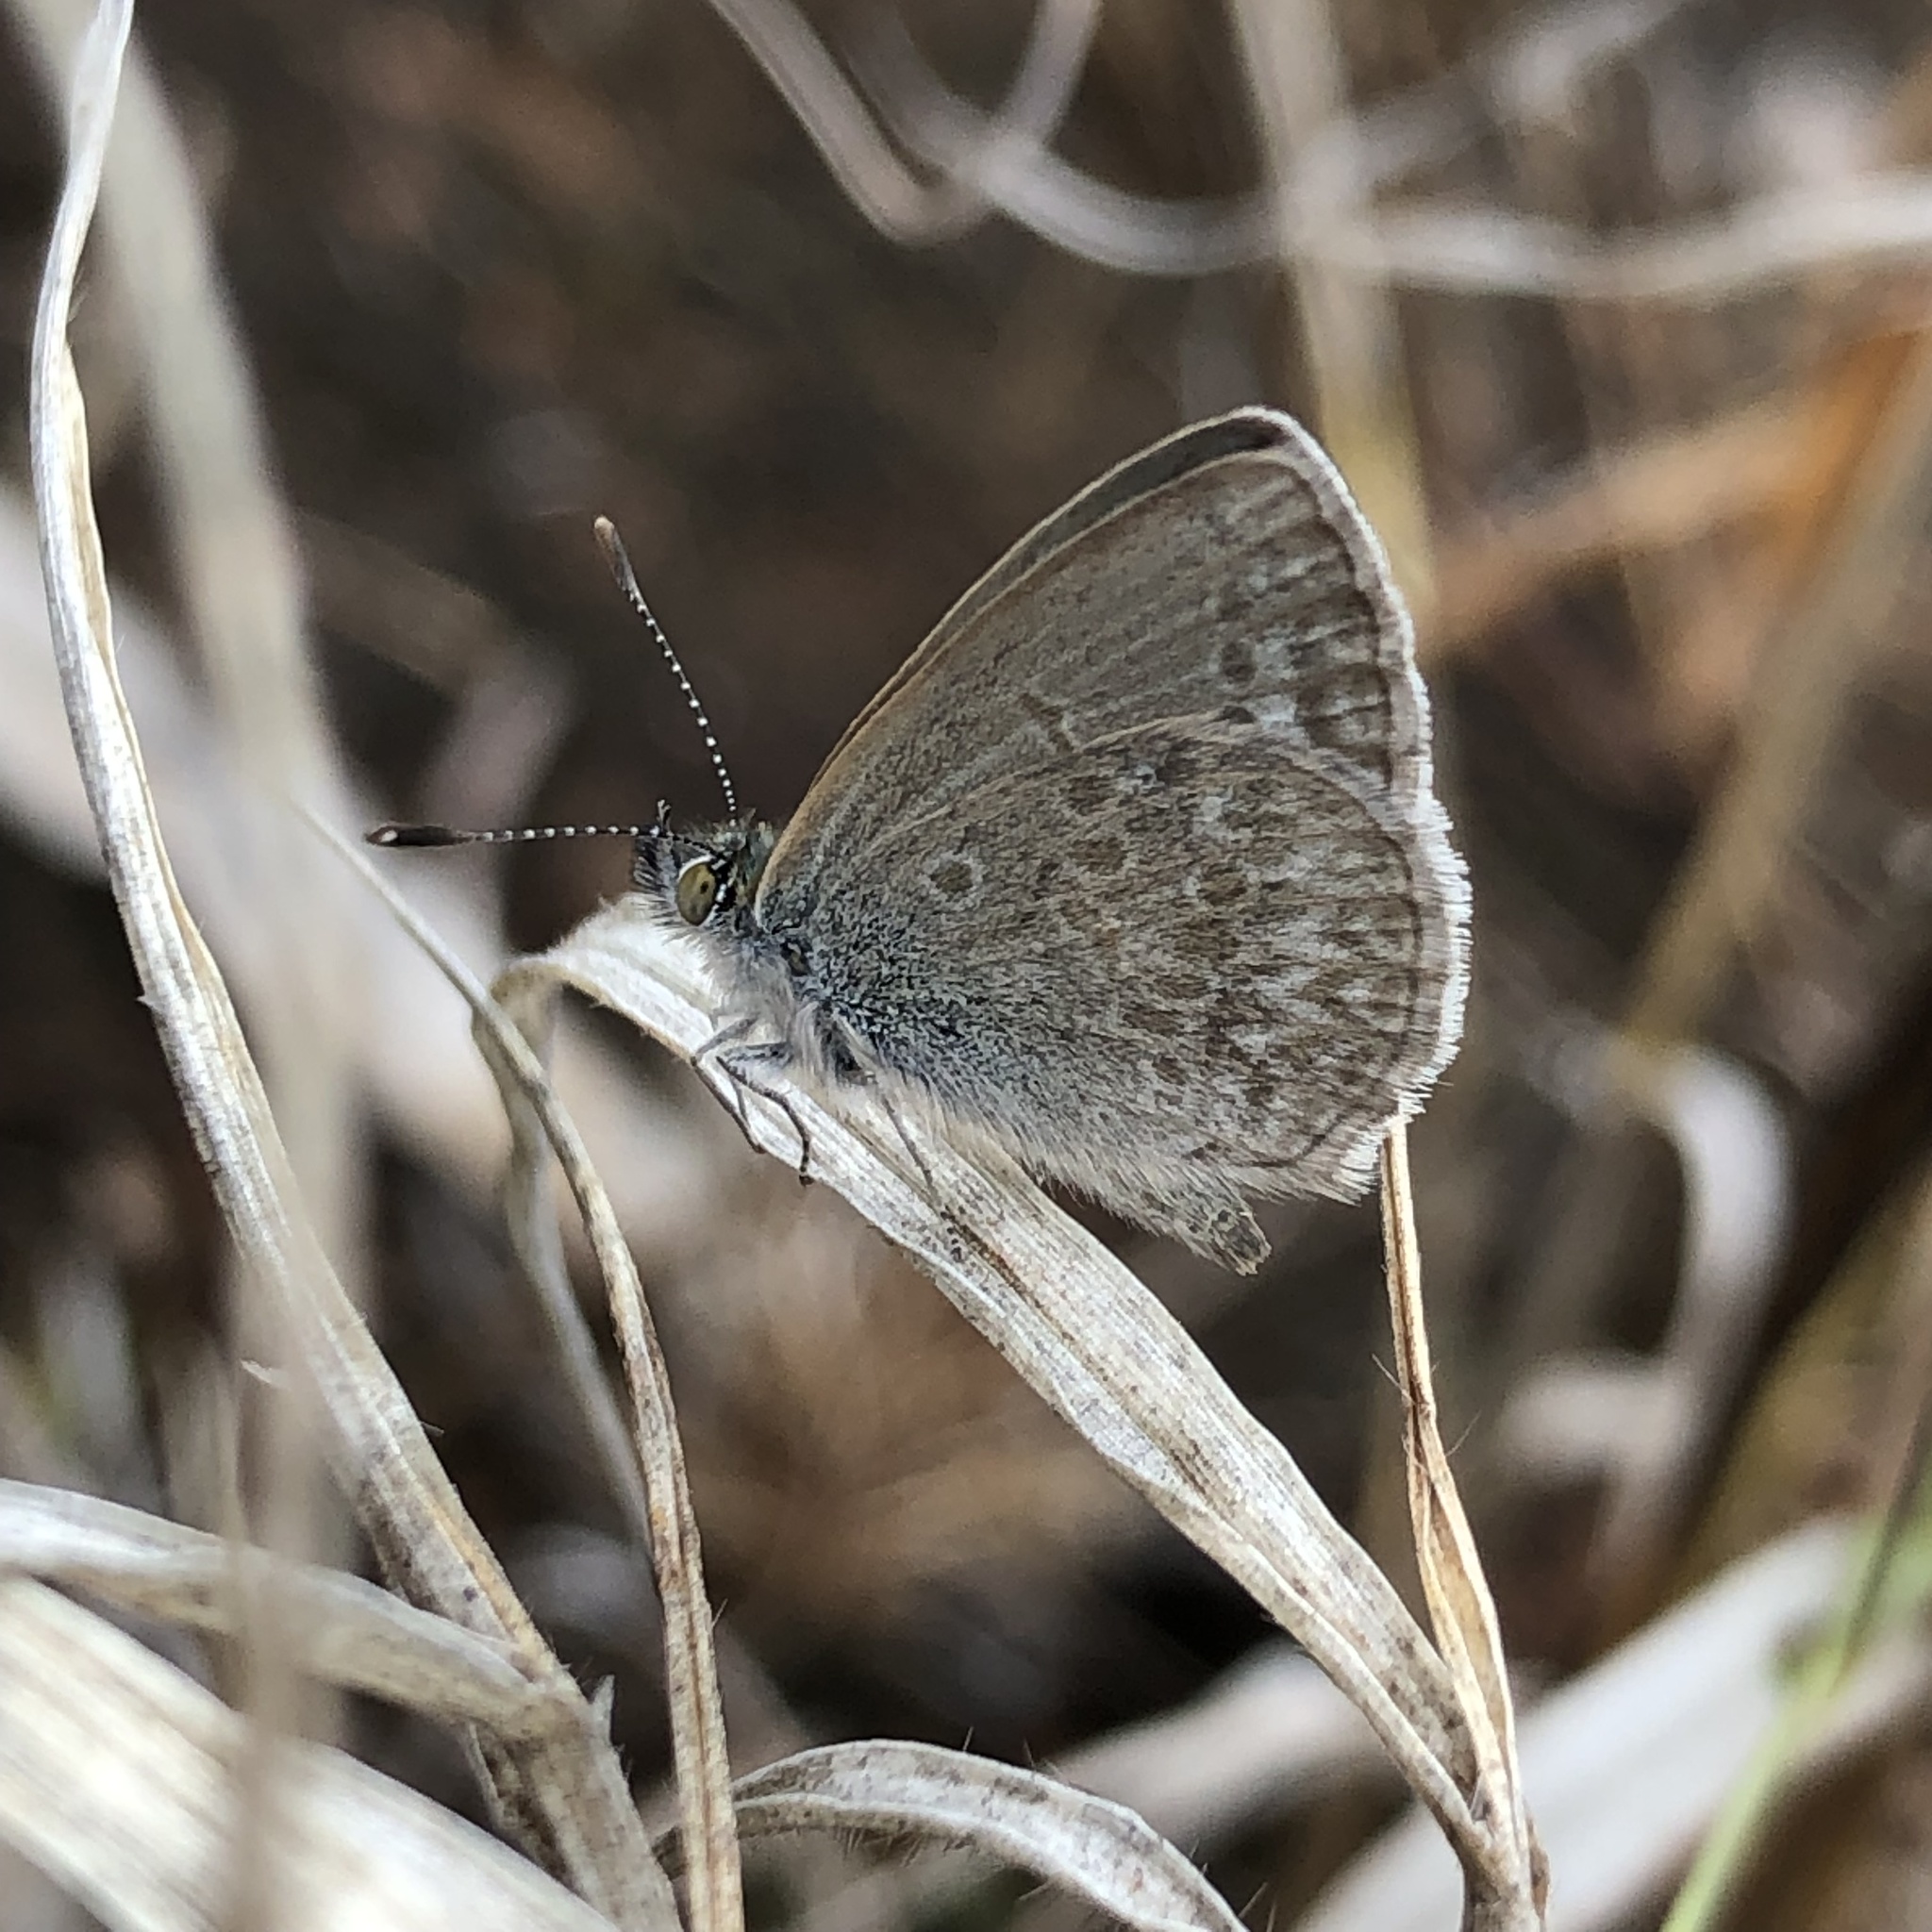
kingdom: Animalia
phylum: Arthropoda
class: Insecta
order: Lepidoptera
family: Lycaenidae
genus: Zizina
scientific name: Zizina otis
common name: Lesser grass blue
